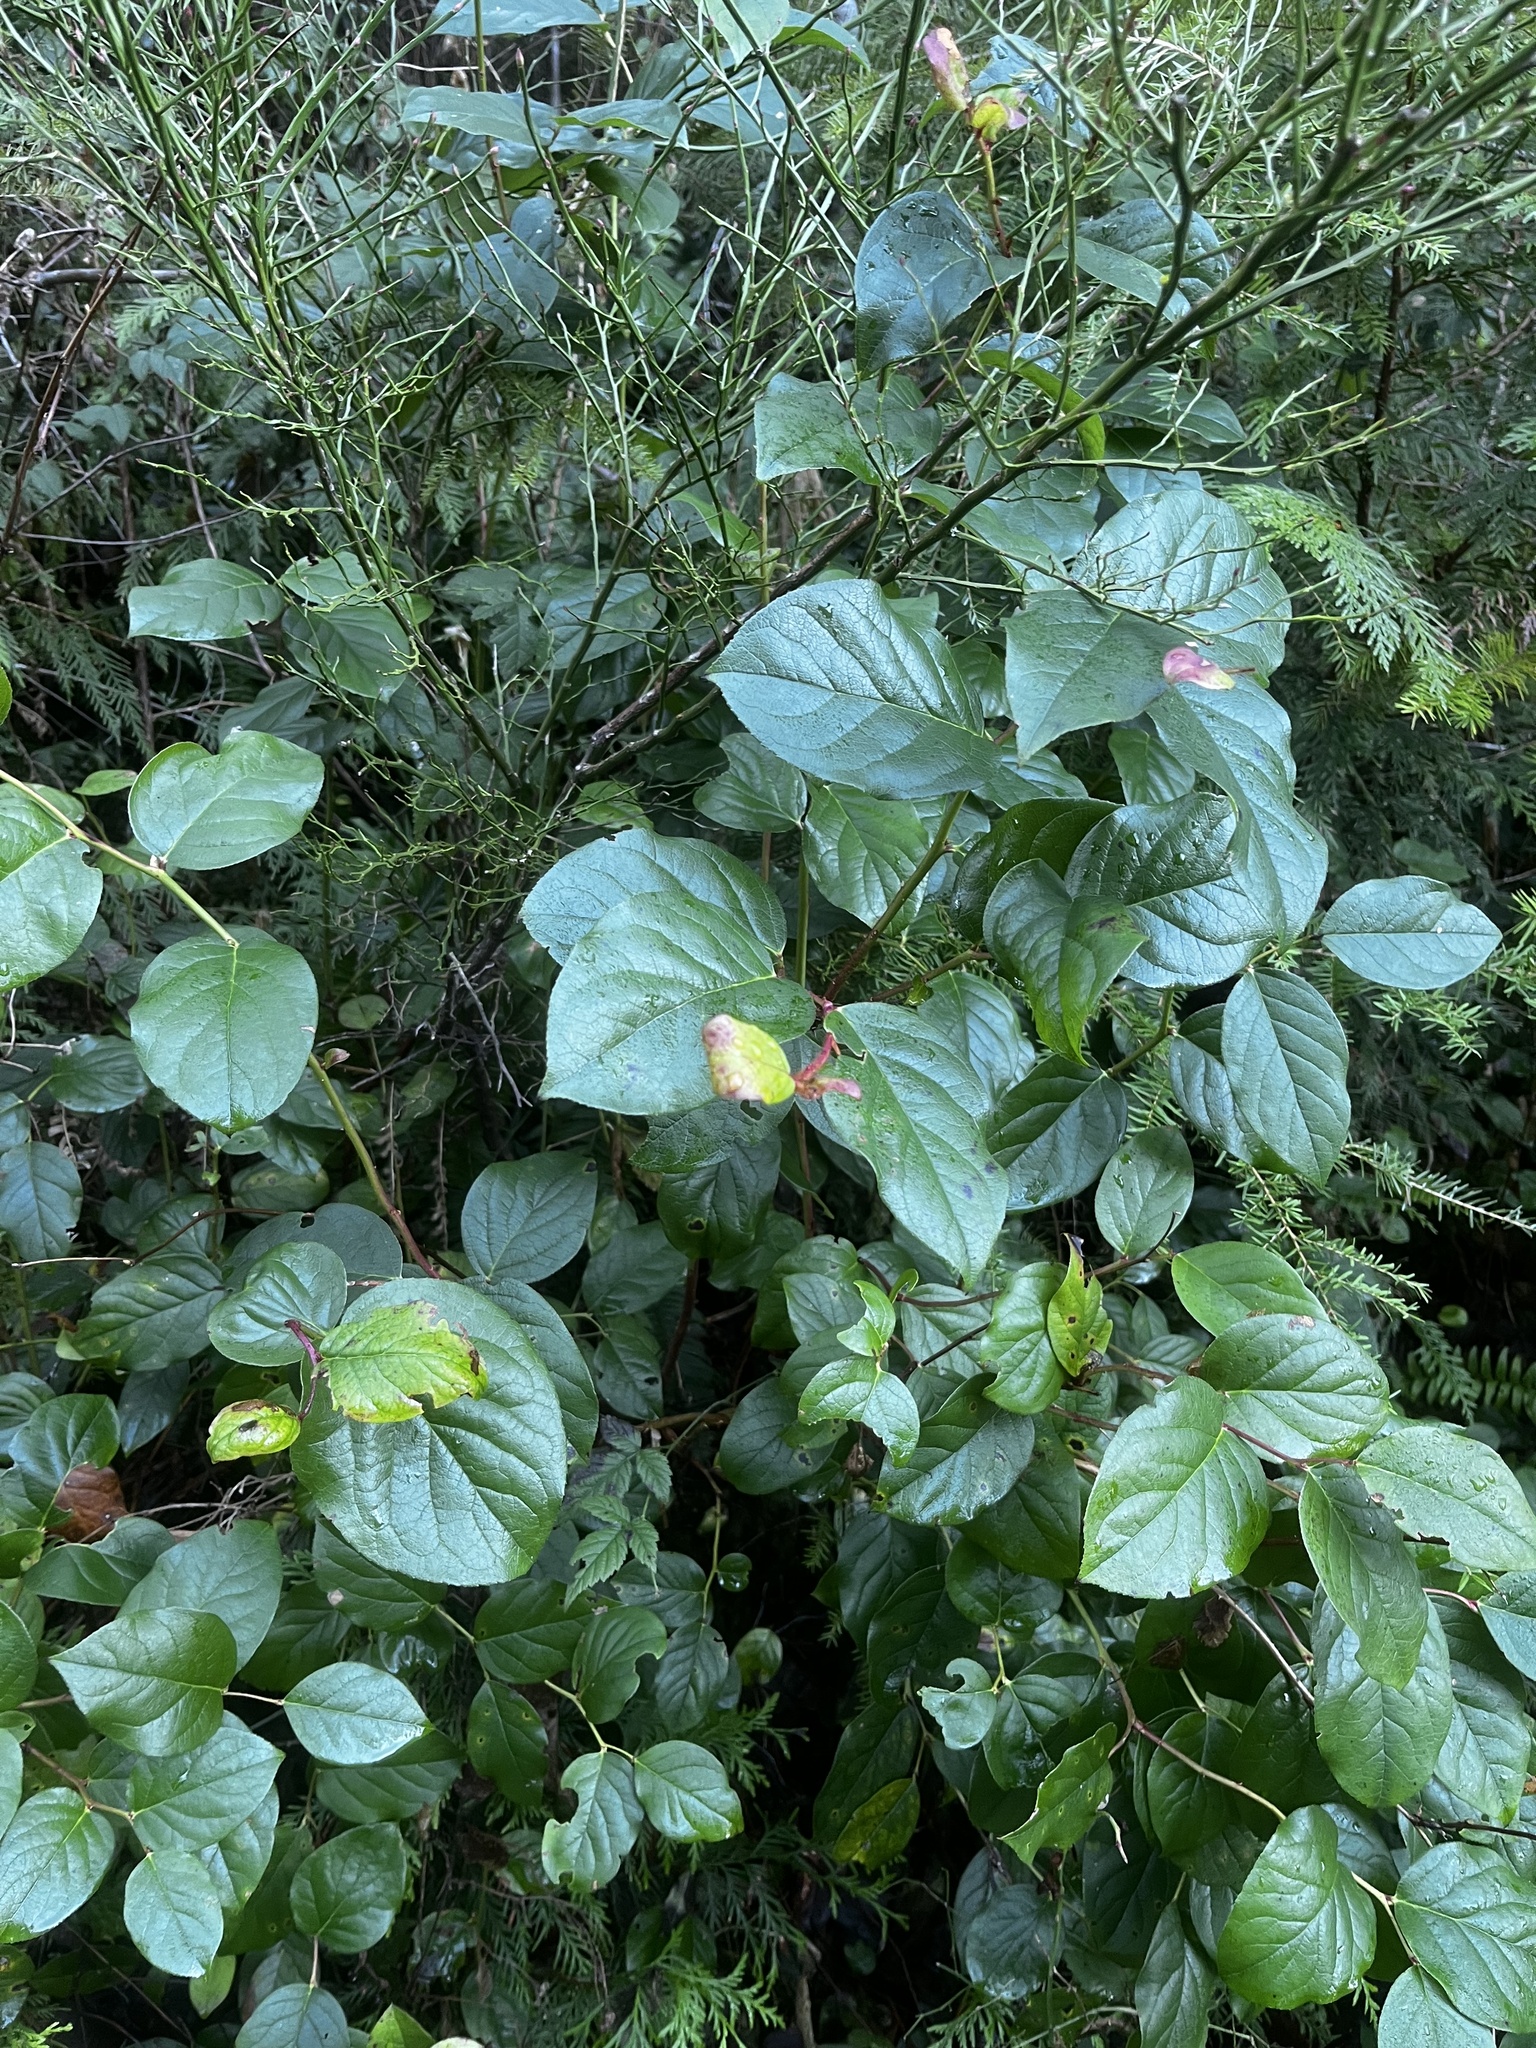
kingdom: Plantae
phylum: Tracheophyta
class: Magnoliopsida
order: Ericales
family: Ericaceae
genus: Gaultheria
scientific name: Gaultheria shallon
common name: Shallon
